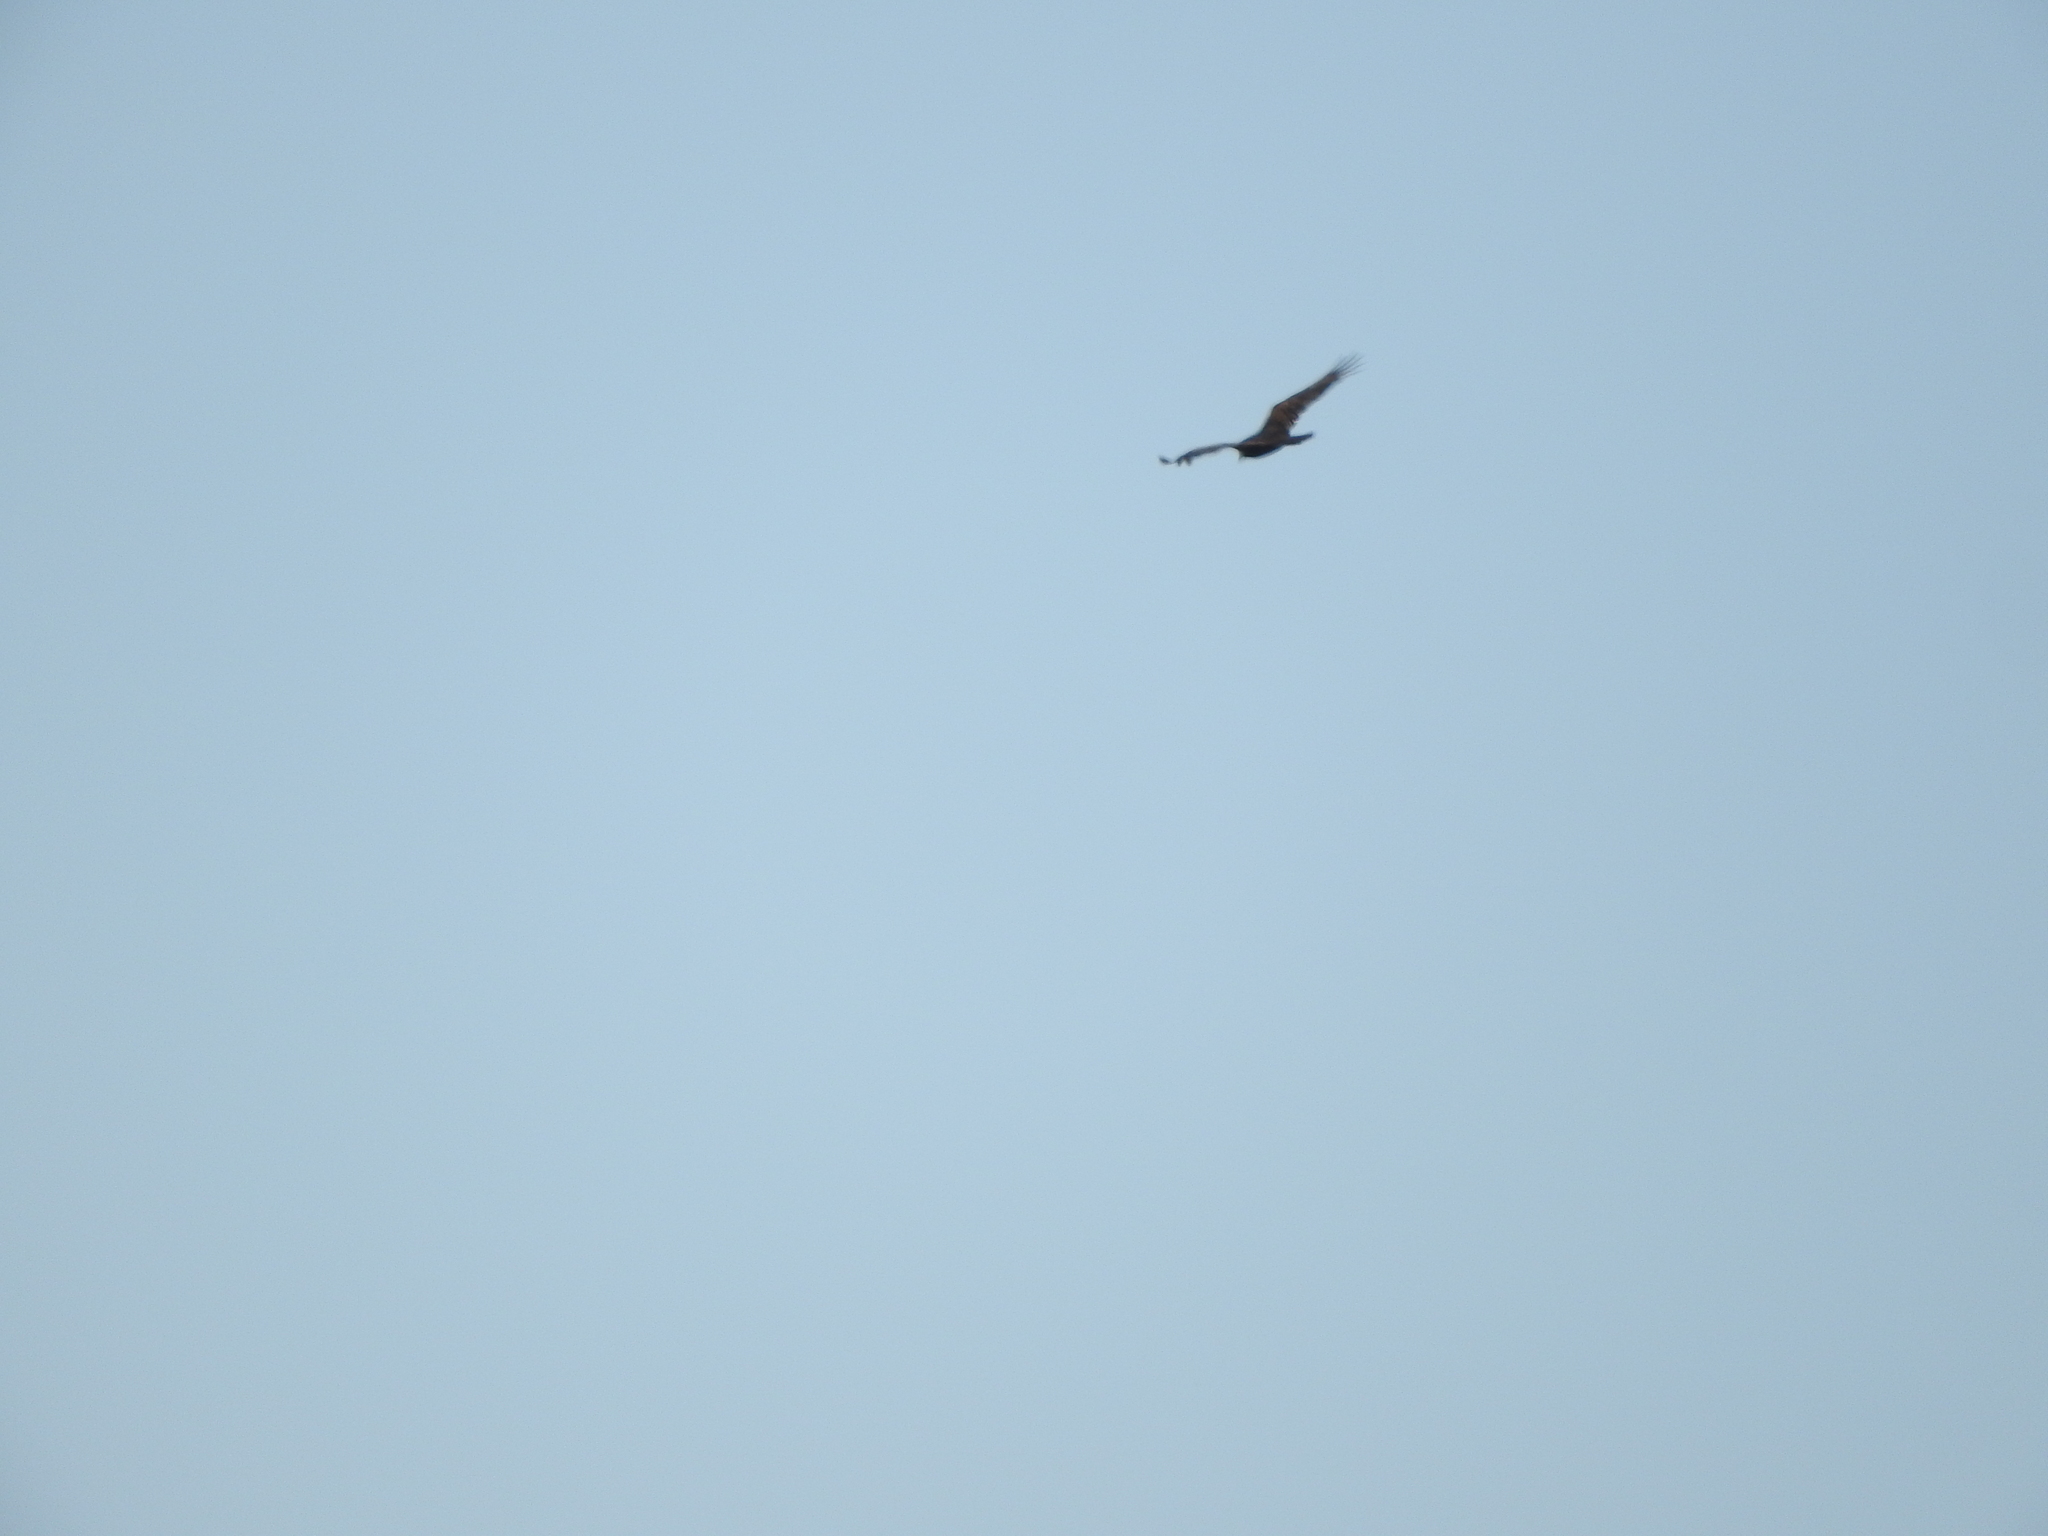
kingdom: Animalia
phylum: Chordata
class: Aves
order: Accipitriformes
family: Cathartidae
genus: Cathartes
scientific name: Cathartes aura
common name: Turkey vulture
